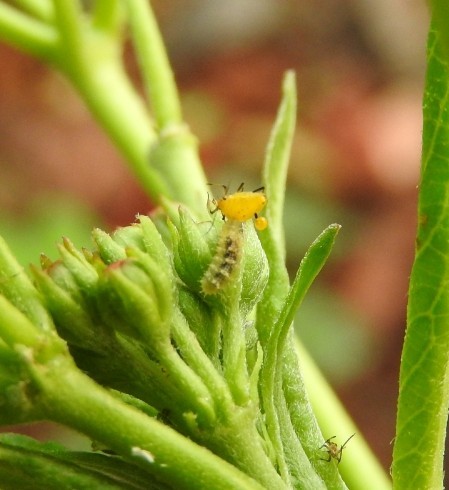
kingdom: Animalia
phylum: Arthropoda
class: Insecta
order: Hemiptera
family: Aphididae
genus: Aphis
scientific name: Aphis nerii
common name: Oleander aphid
